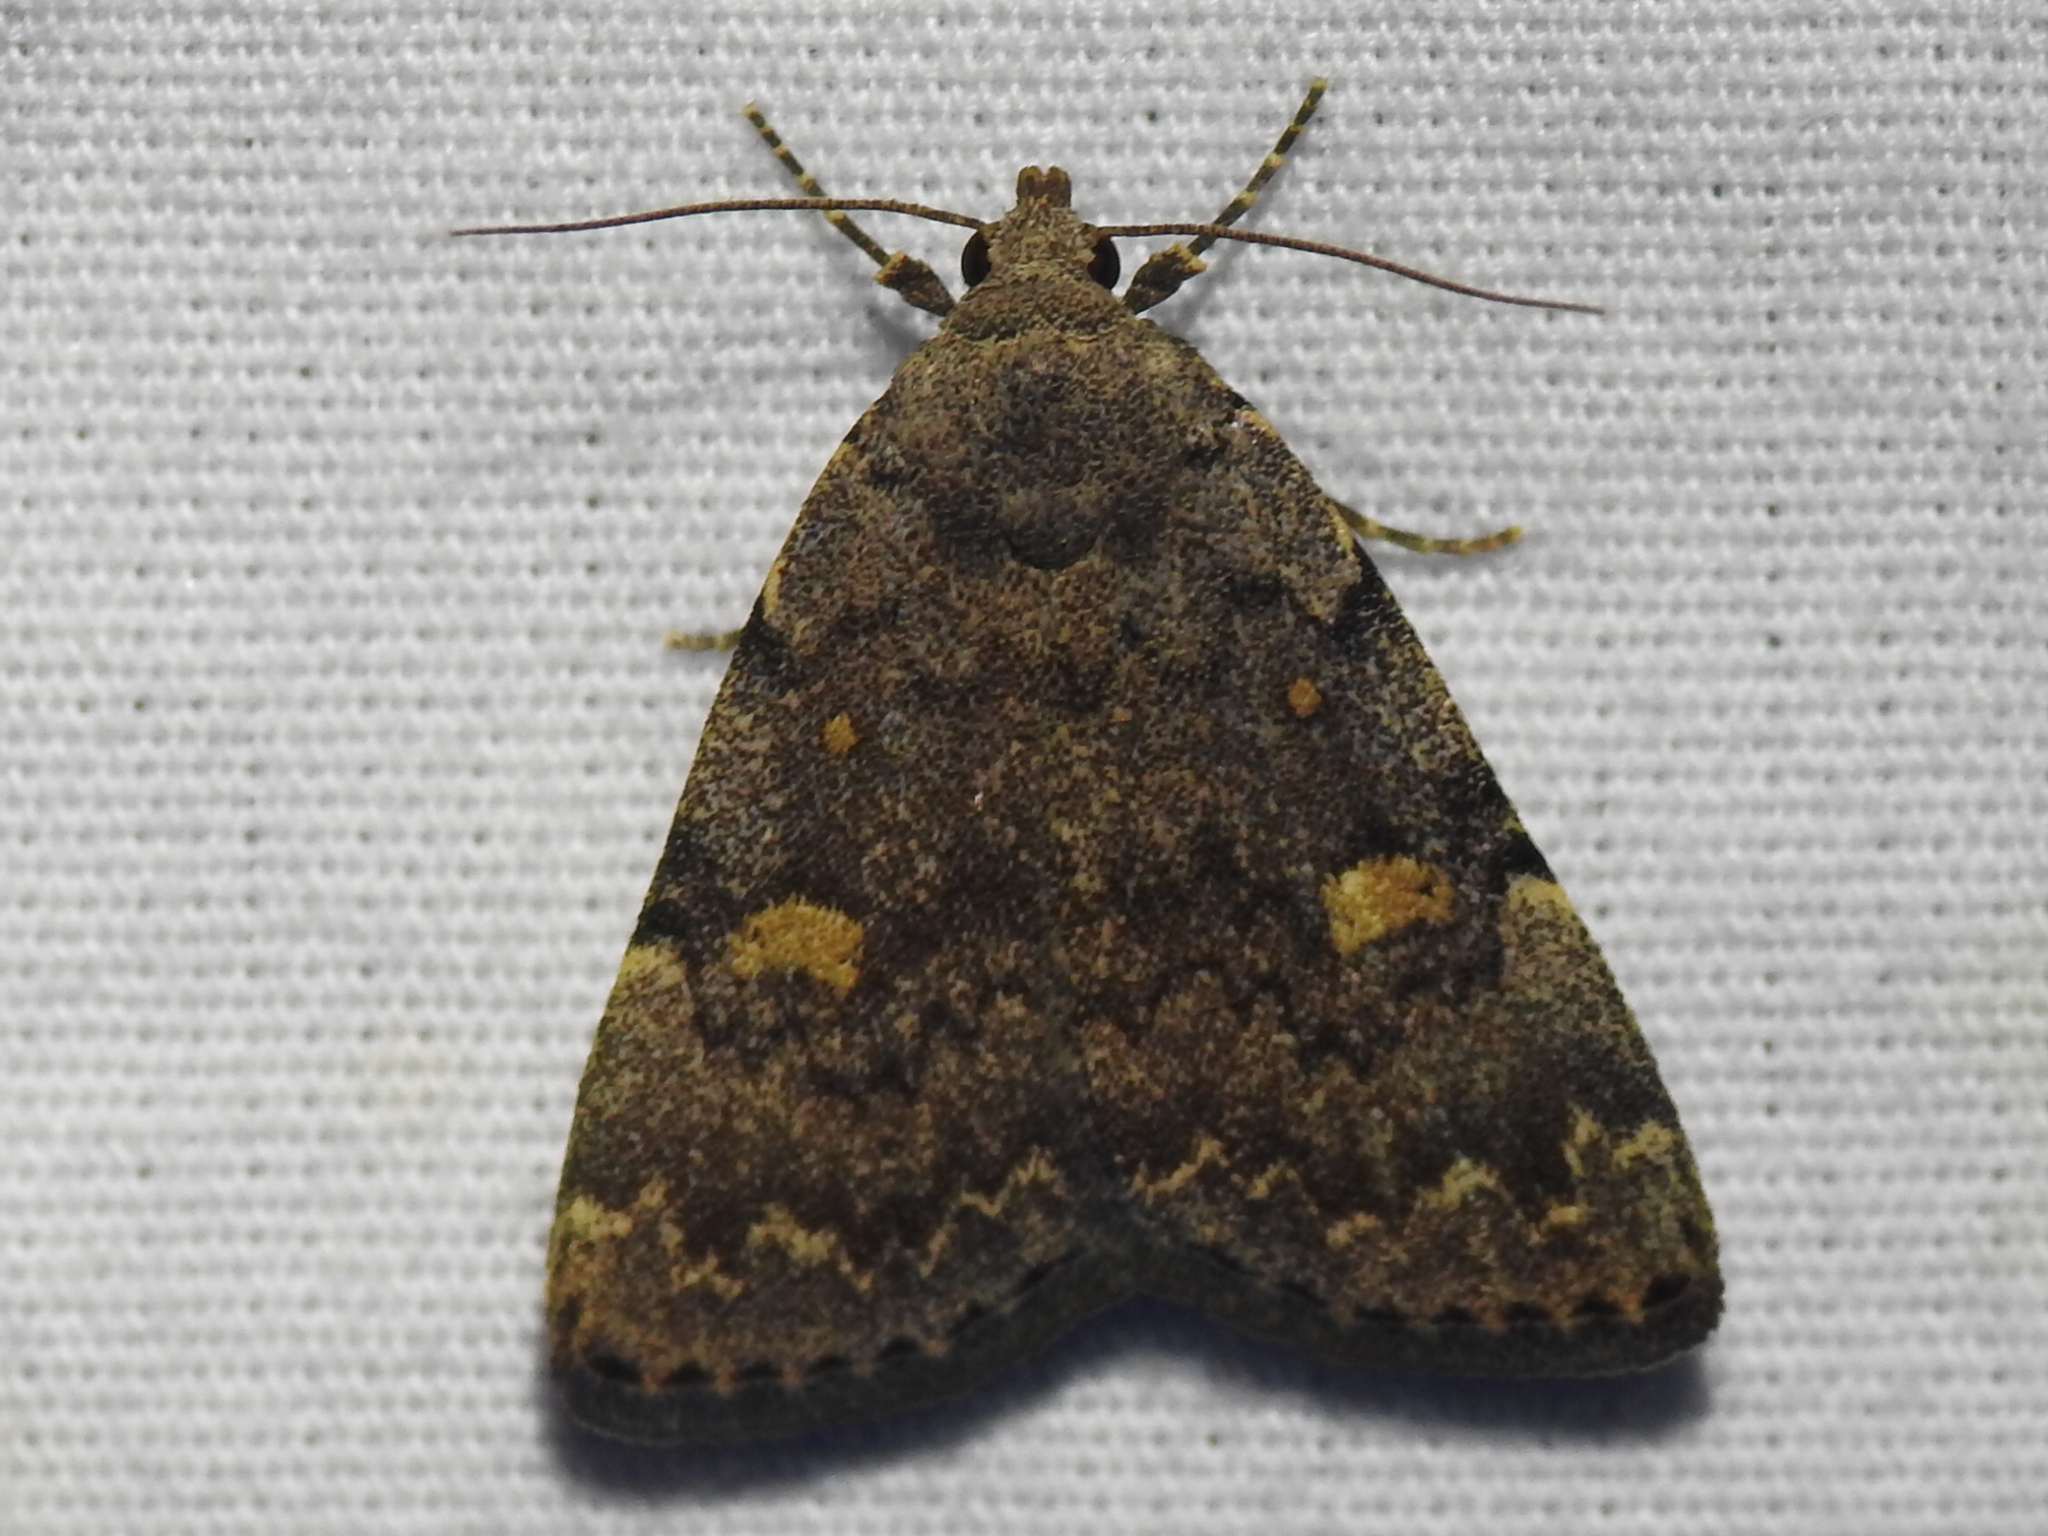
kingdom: Animalia
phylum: Arthropoda
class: Insecta
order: Lepidoptera
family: Erebidae
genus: Idia
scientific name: Idia aemula
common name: Common idia moth
